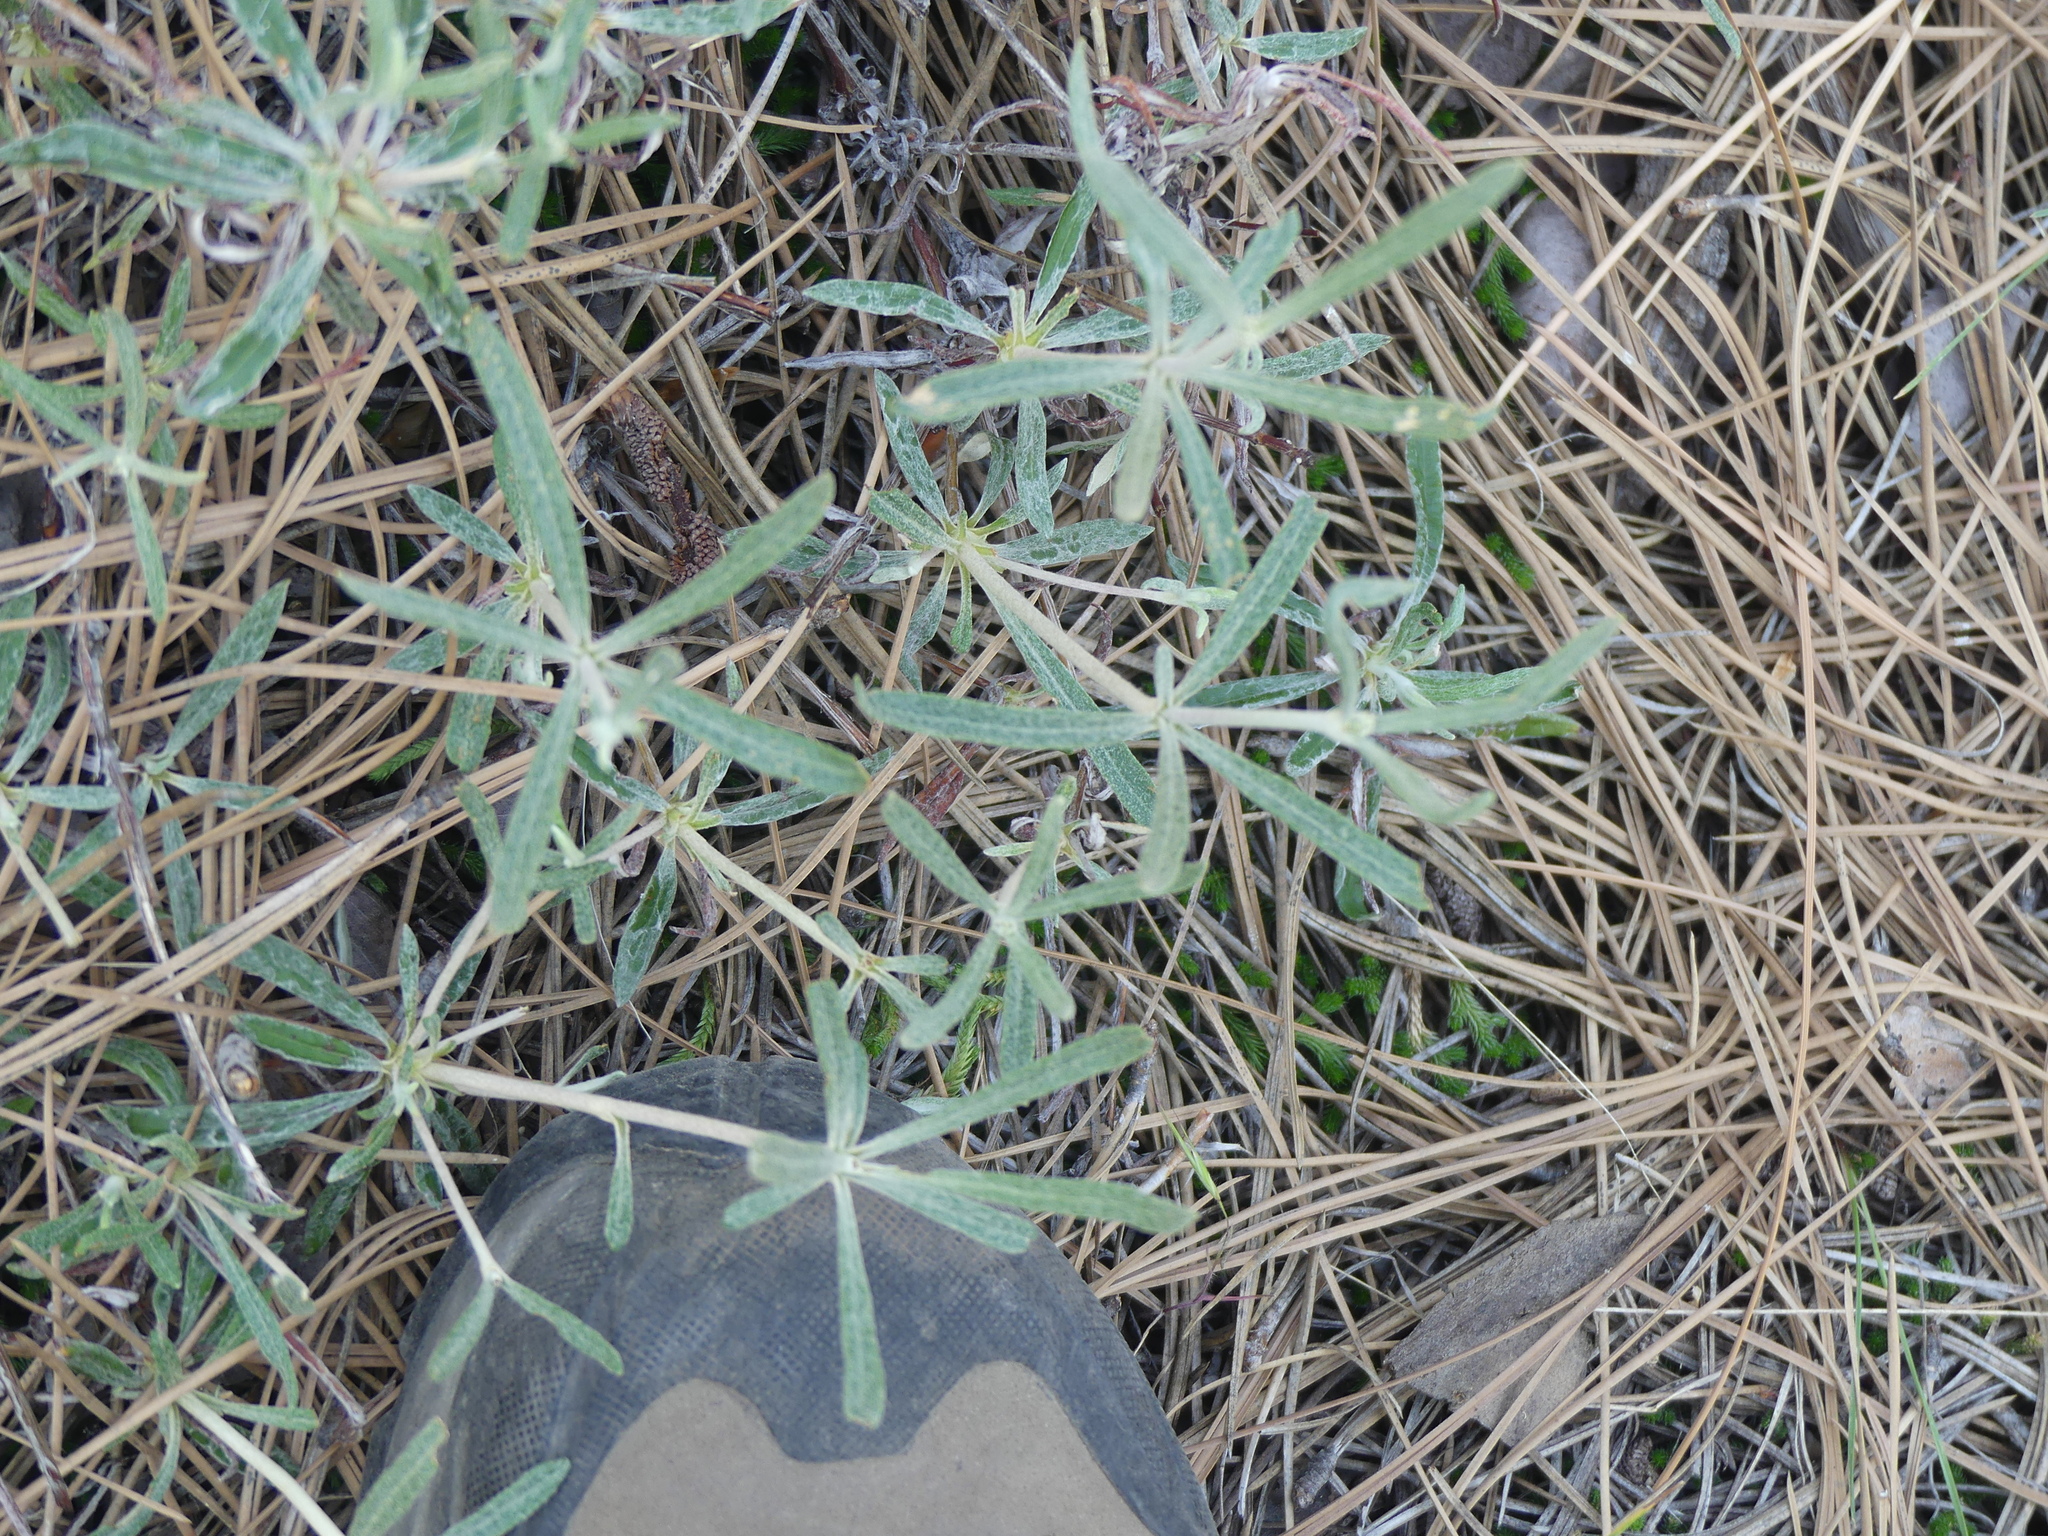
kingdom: Plantae
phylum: Tracheophyta
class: Magnoliopsida
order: Caryophyllales
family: Polygonaceae
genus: Eriogonum
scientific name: Eriogonum heracleoides
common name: Wyeth's buckwheat
